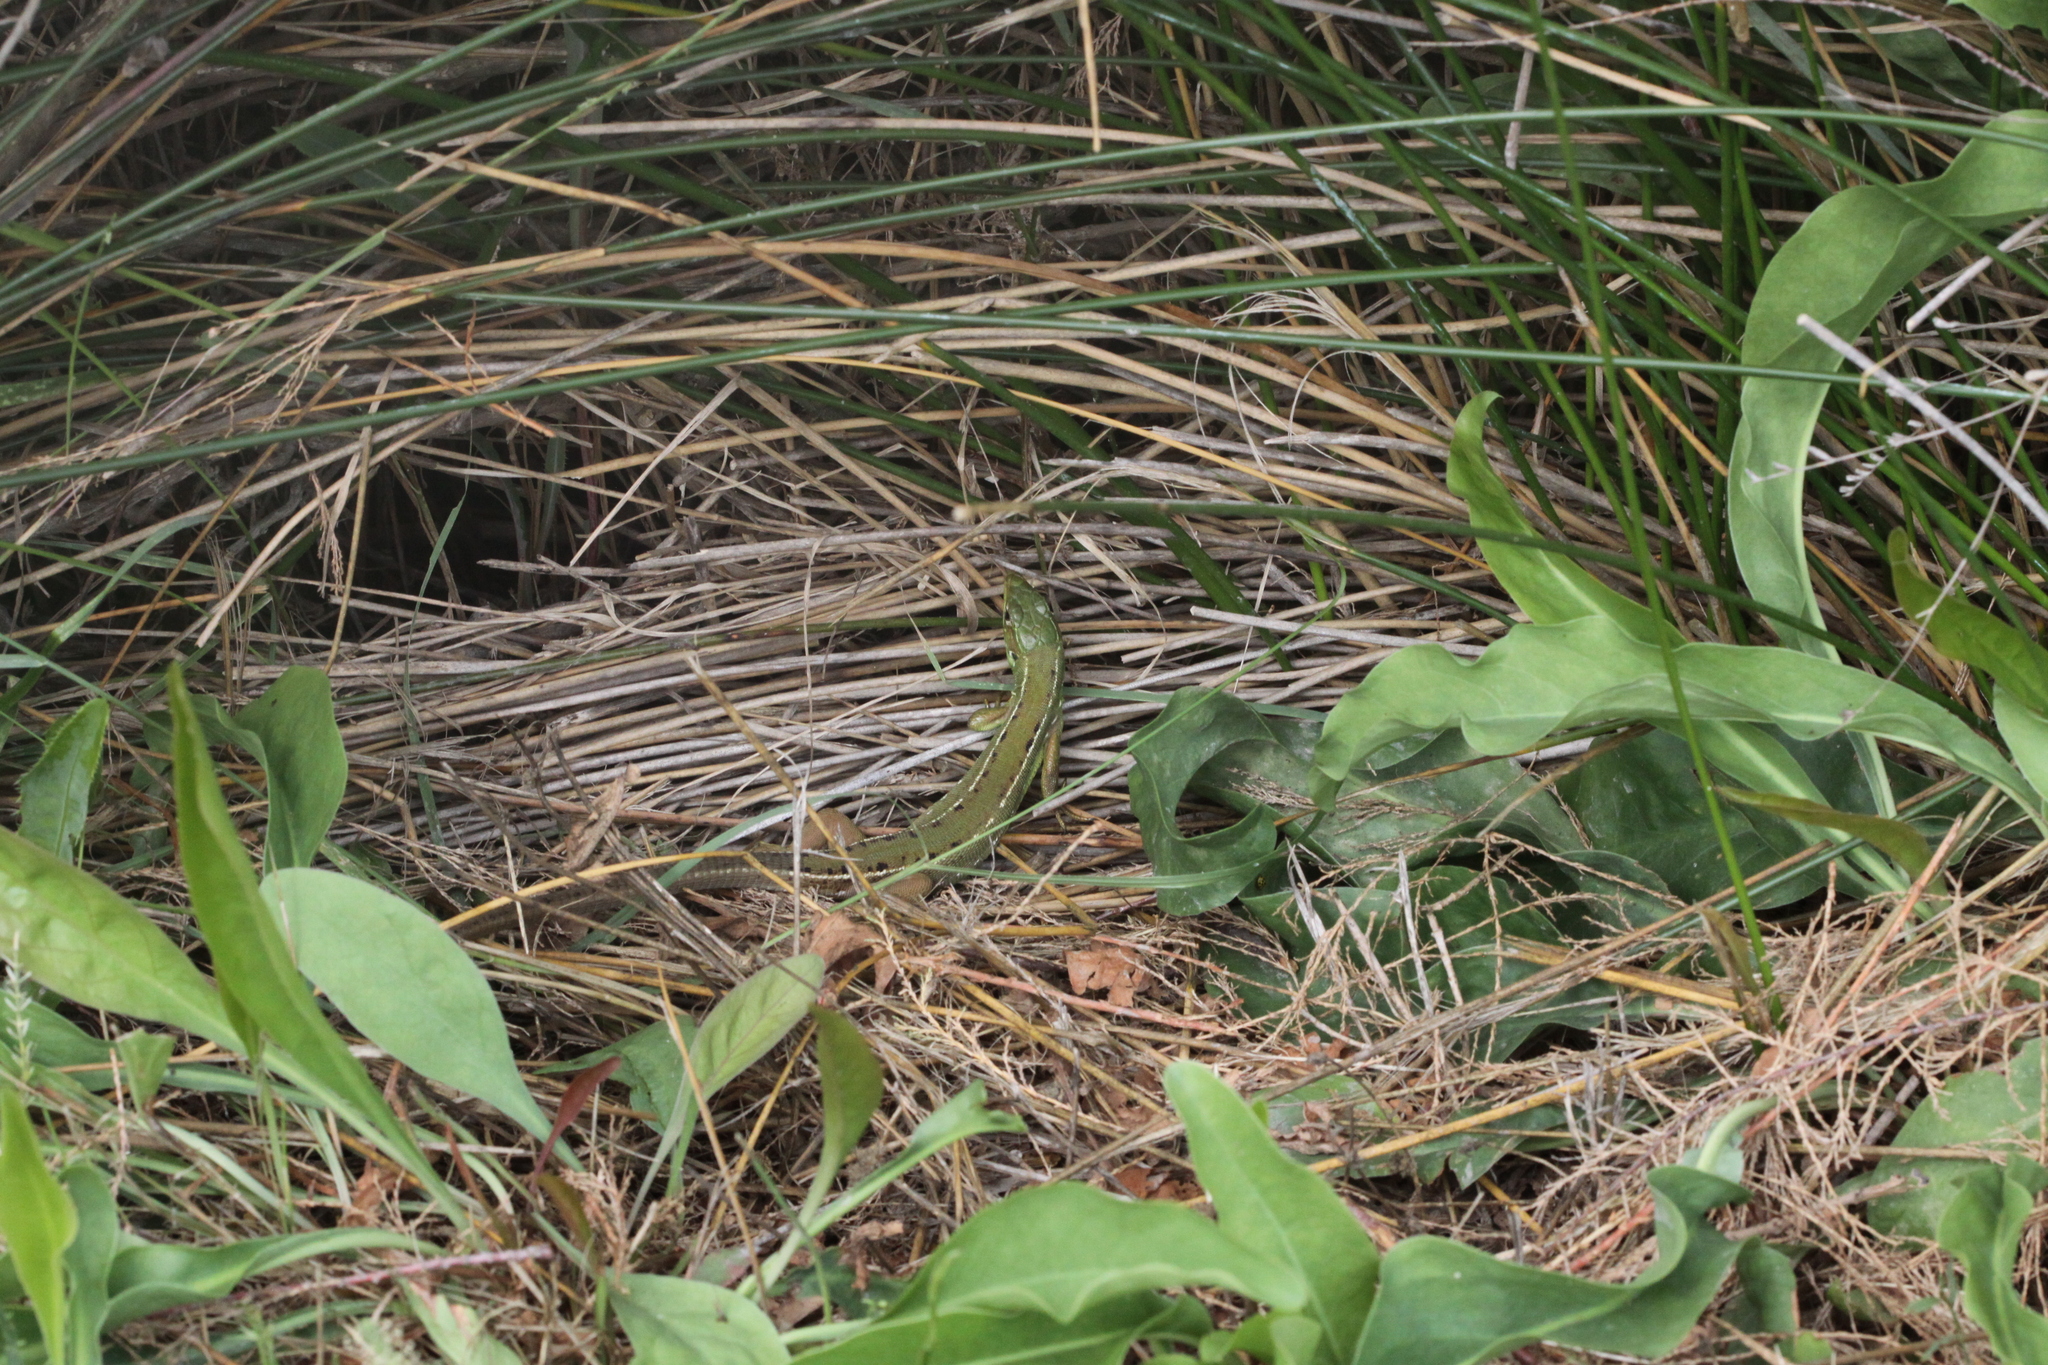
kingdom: Animalia
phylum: Chordata
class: Squamata
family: Lacertidae
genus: Lacerta
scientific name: Lacerta bilineata
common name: Western green lizard
